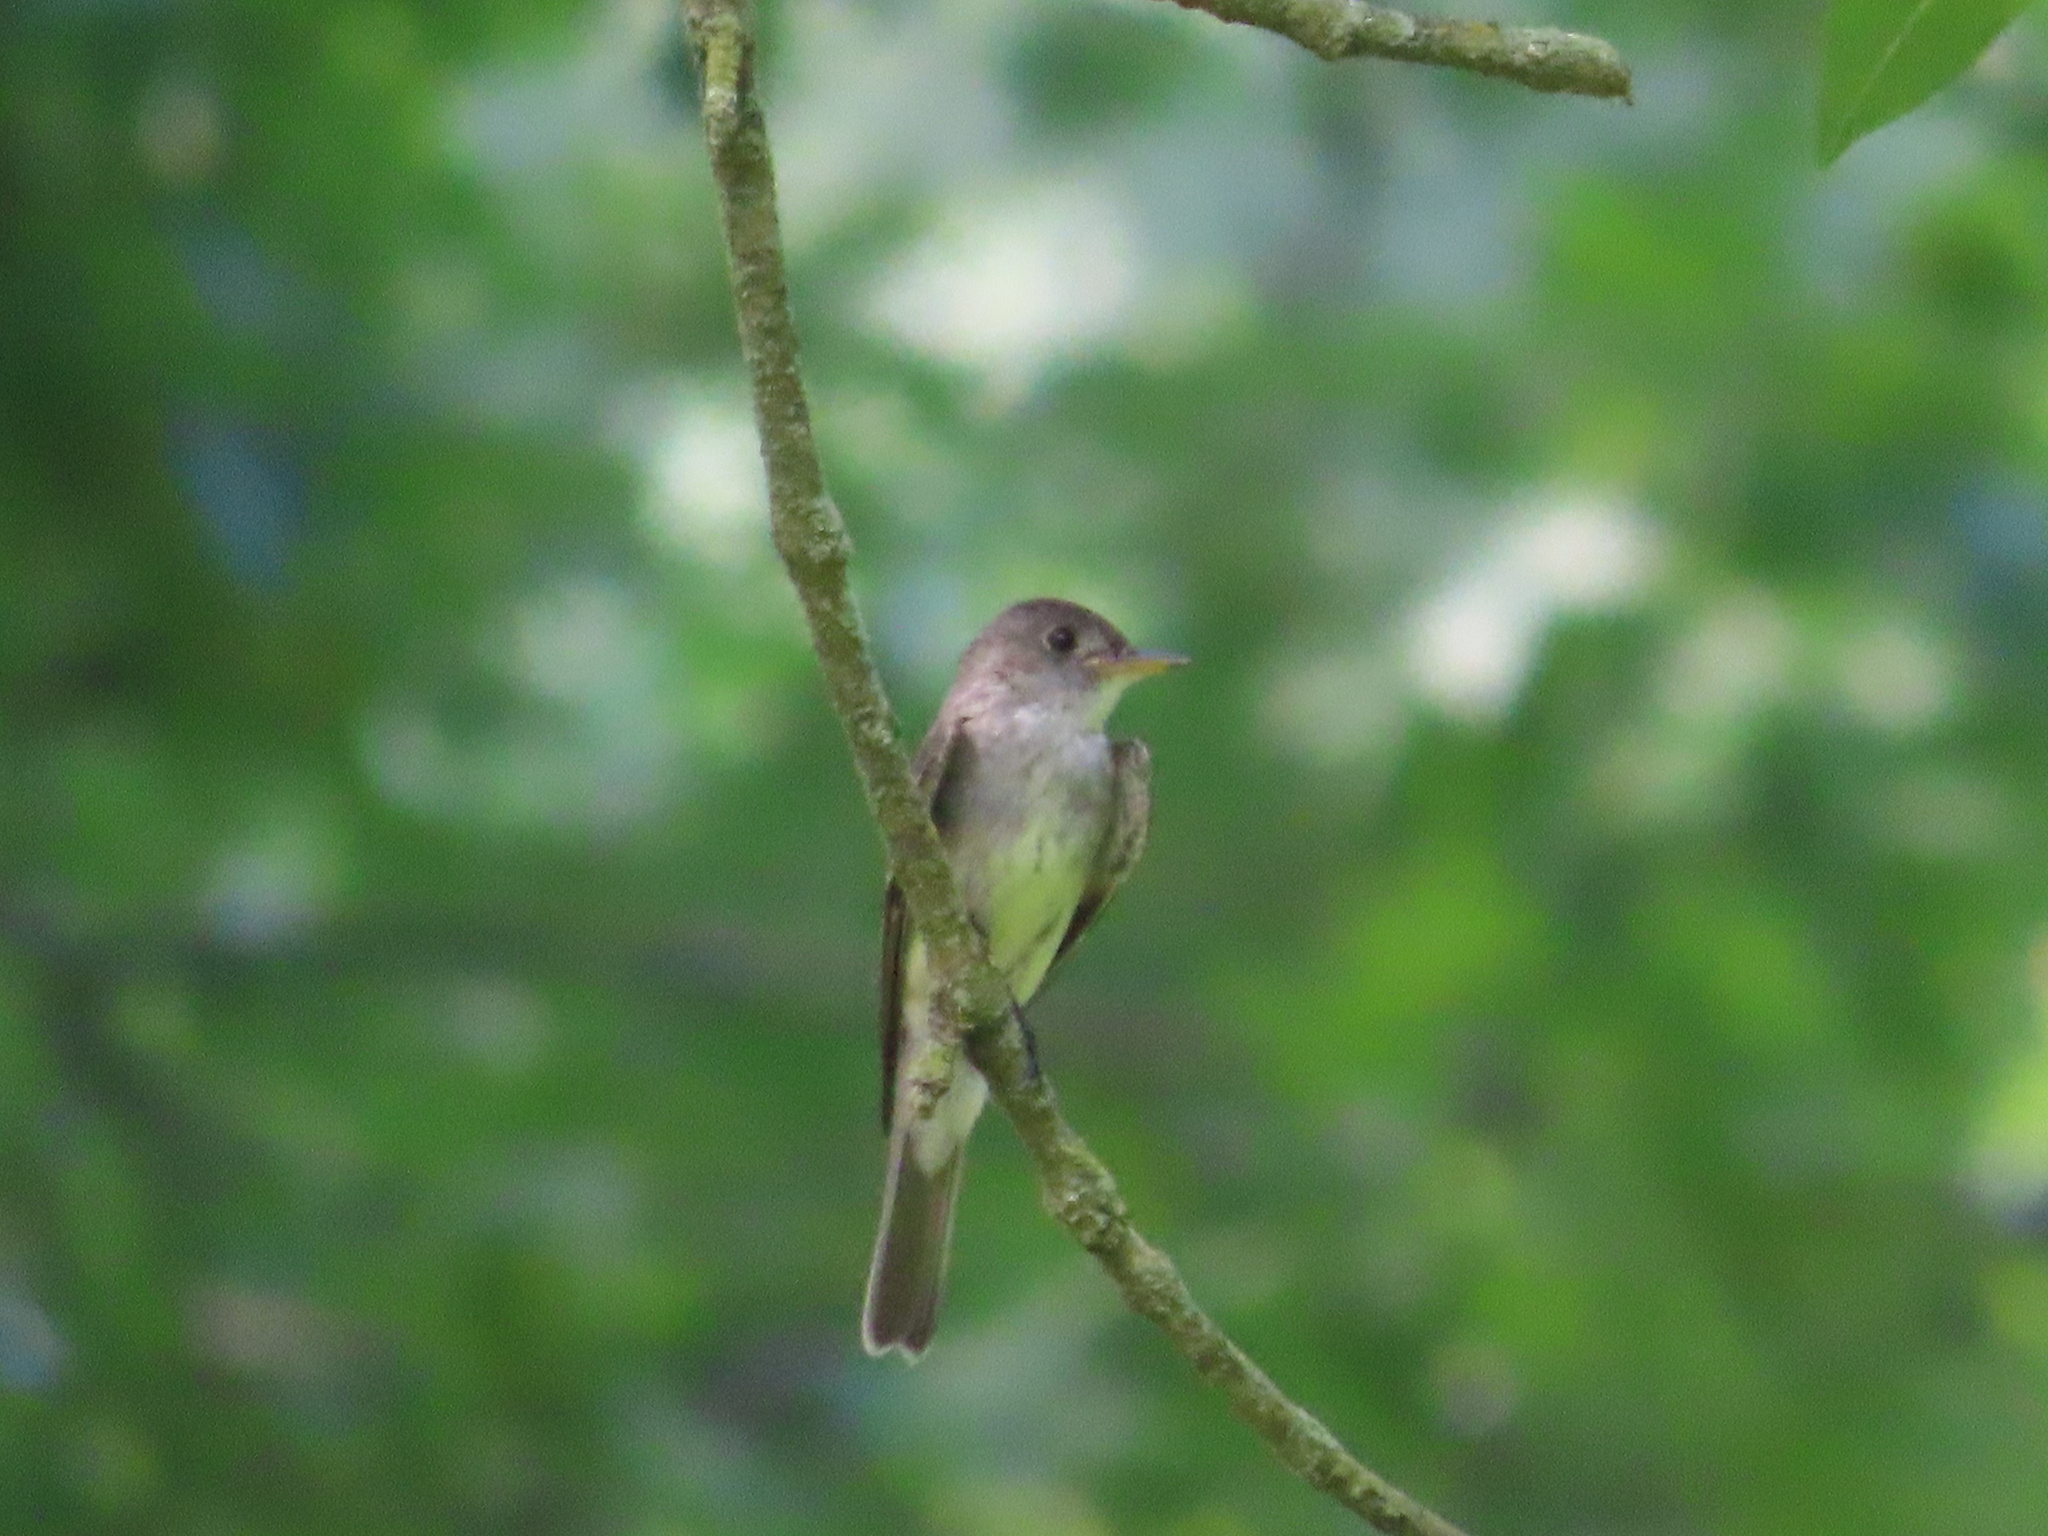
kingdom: Animalia
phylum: Chordata
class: Aves
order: Passeriformes
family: Tyrannidae
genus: Contopus
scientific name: Contopus virens
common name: Eastern wood-pewee
